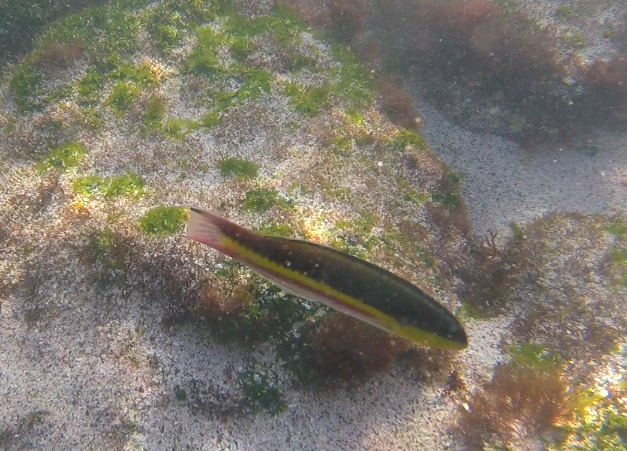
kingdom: Animalia
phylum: Chordata
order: Perciformes
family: Labridae
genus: Thalassoma
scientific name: Thalassoma lucasanum
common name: Cortez rainbow wrasse
